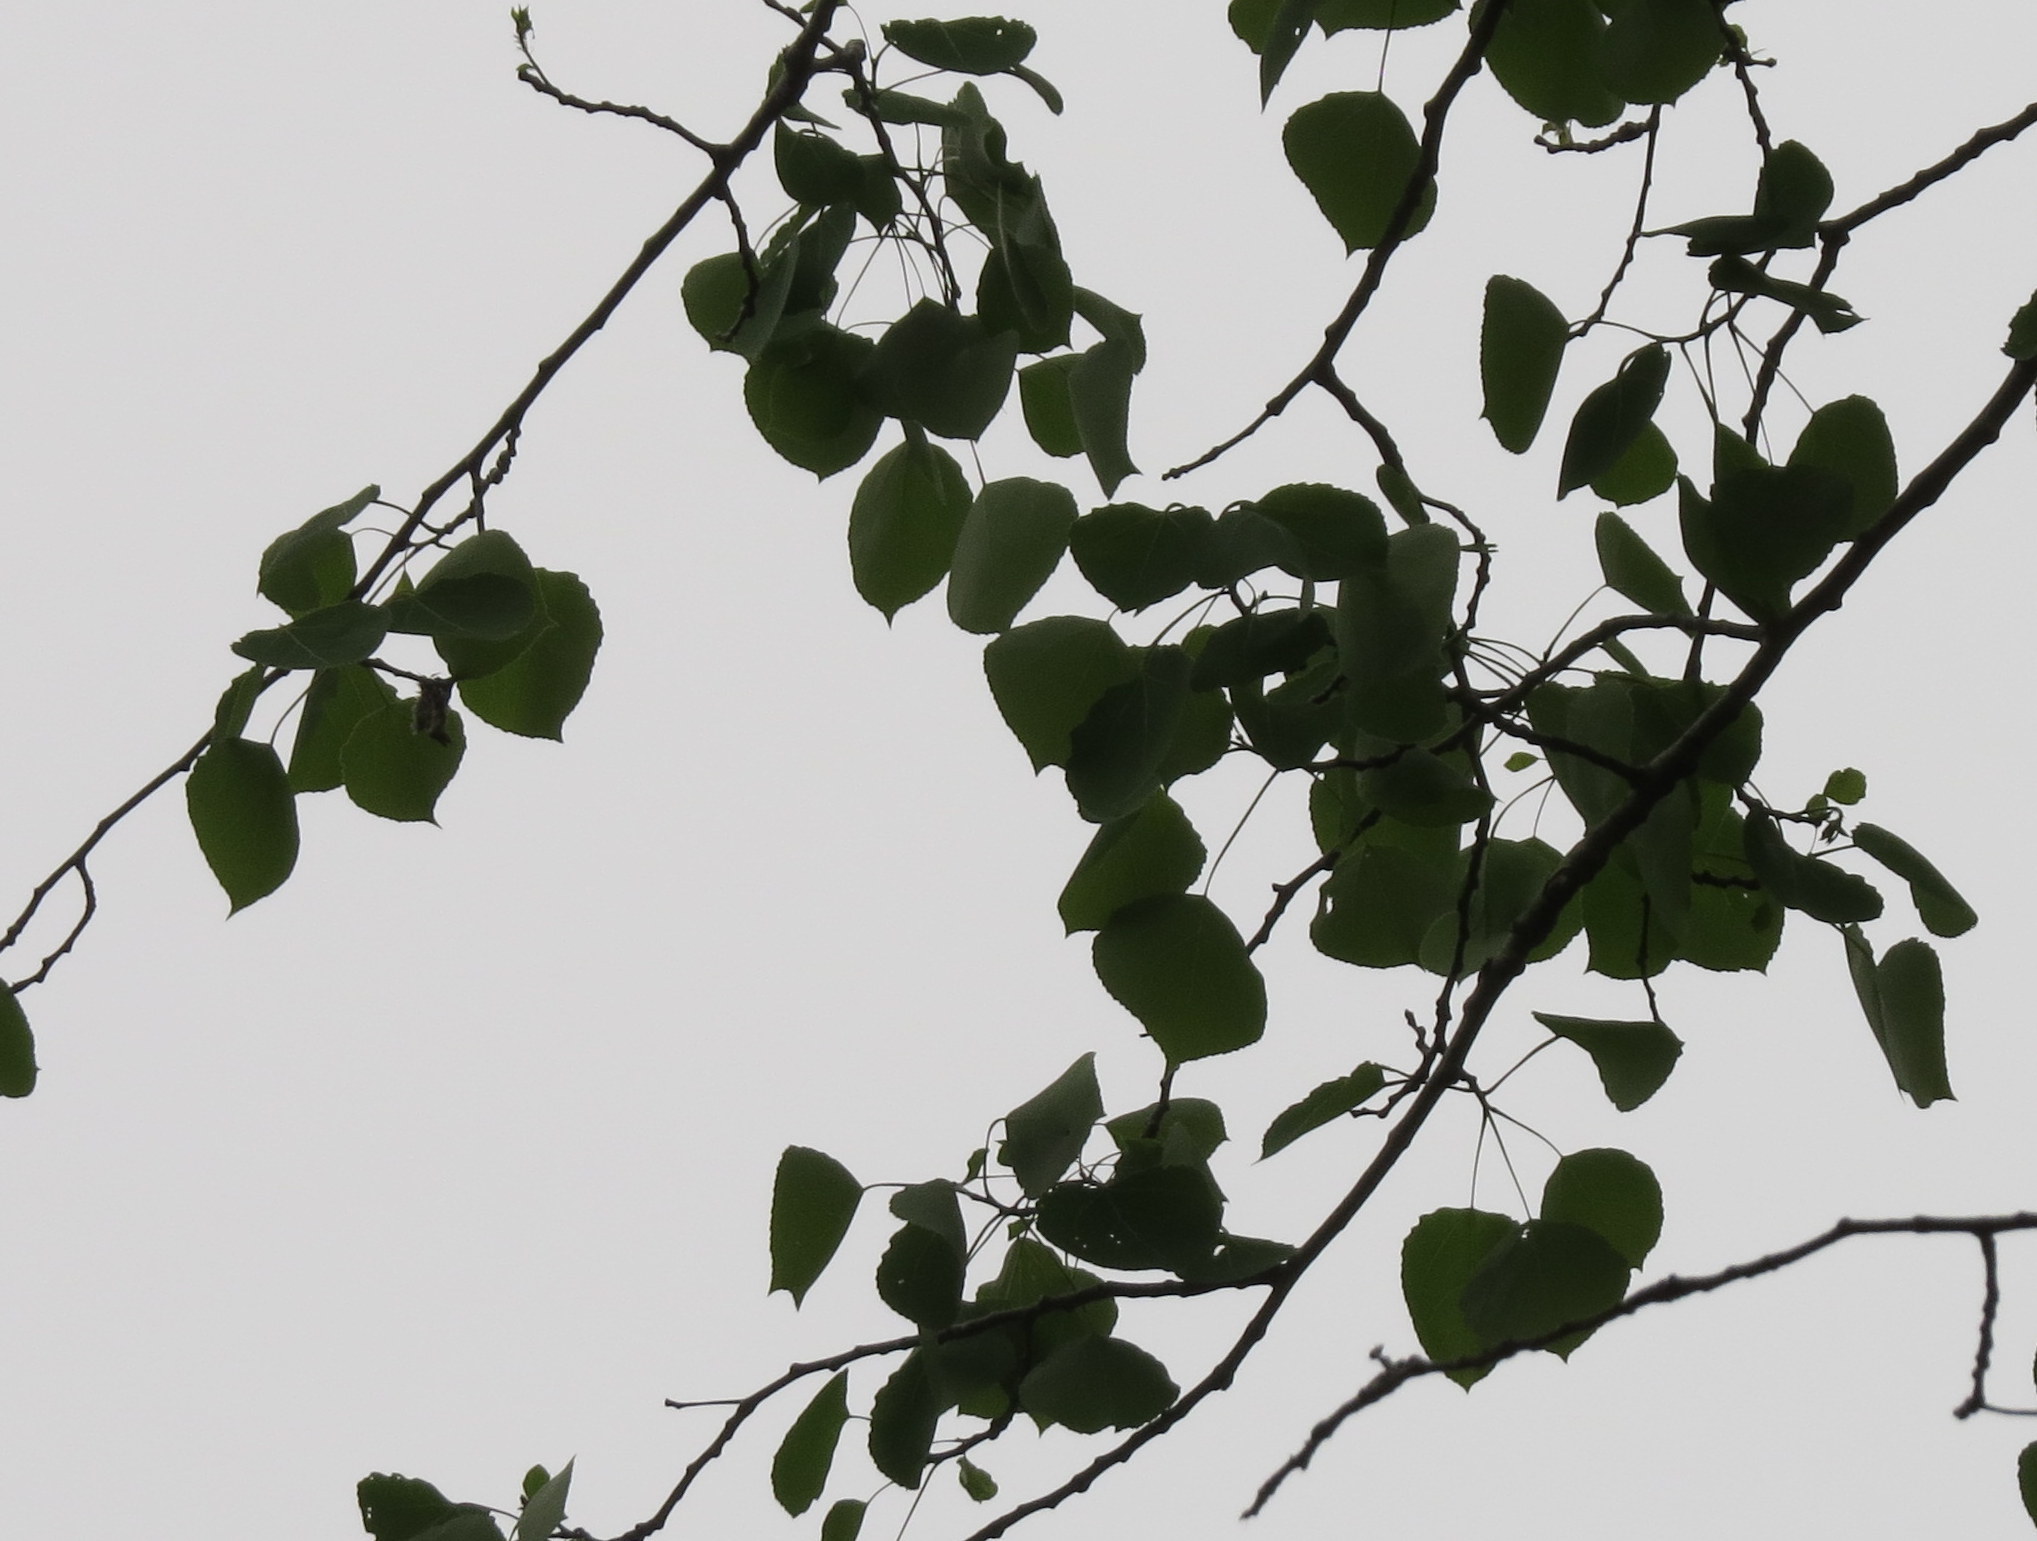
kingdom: Plantae
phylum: Tracheophyta
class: Magnoliopsida
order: Malpighiales
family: Salicaceae
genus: Populus
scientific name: Populus tremuloides
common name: Quaking aspen
